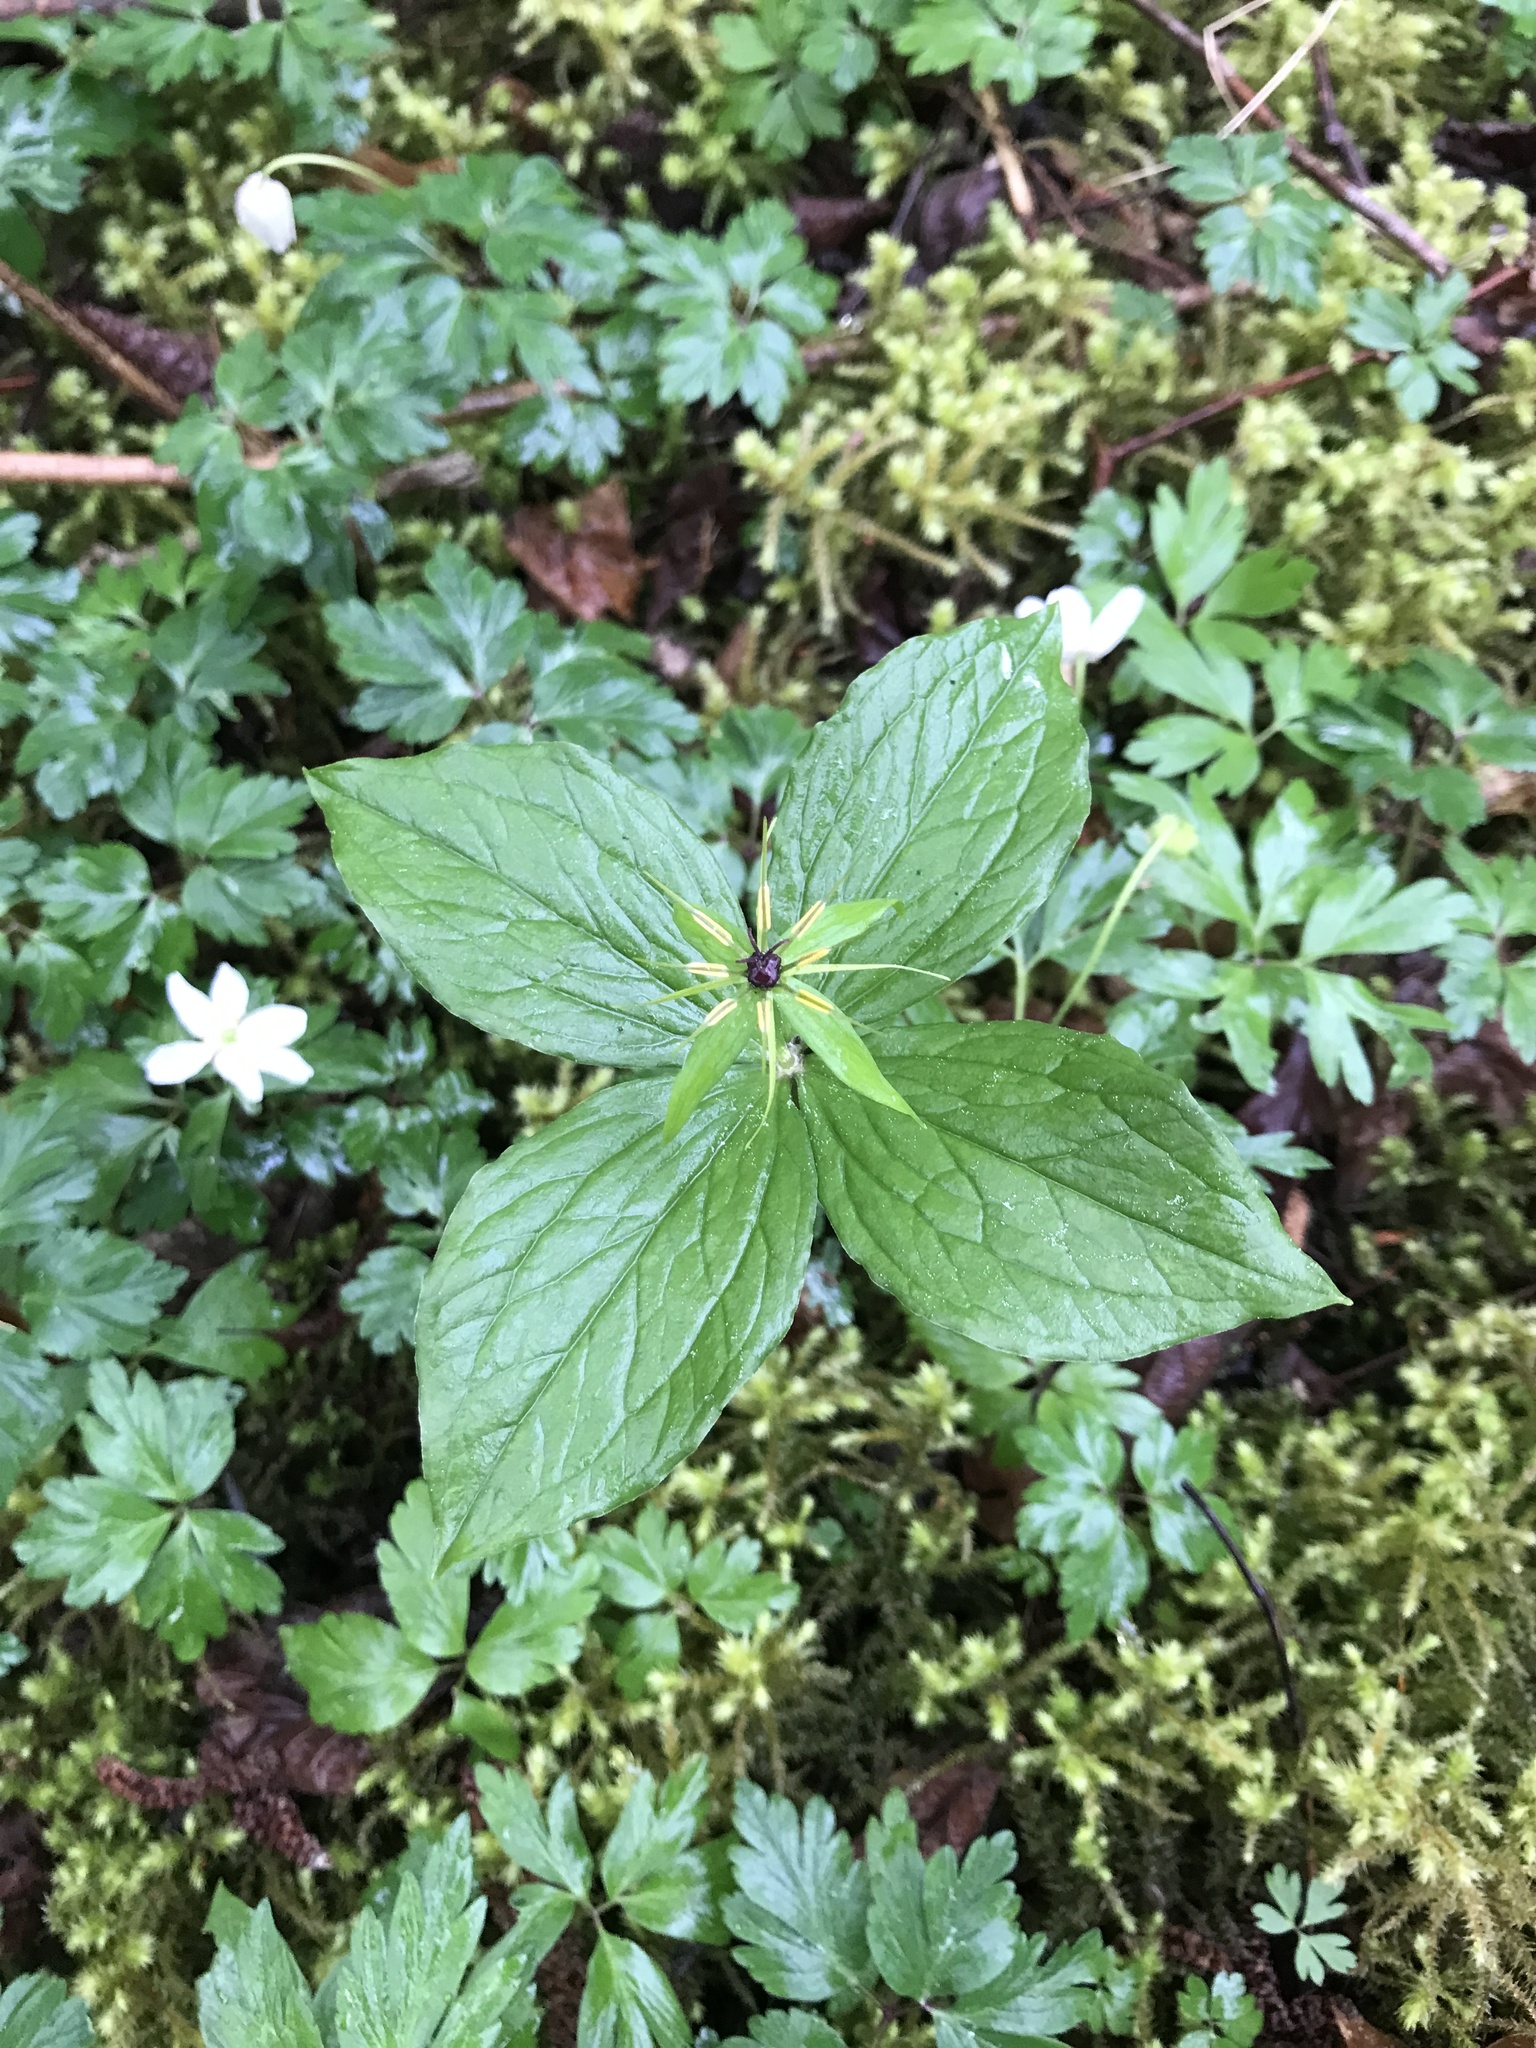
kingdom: Plantae
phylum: Tracheophyta
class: Liliopsida
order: Liliales
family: Melanthiaceae
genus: Paris
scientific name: Paris quadrifolia
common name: Herb-paris
